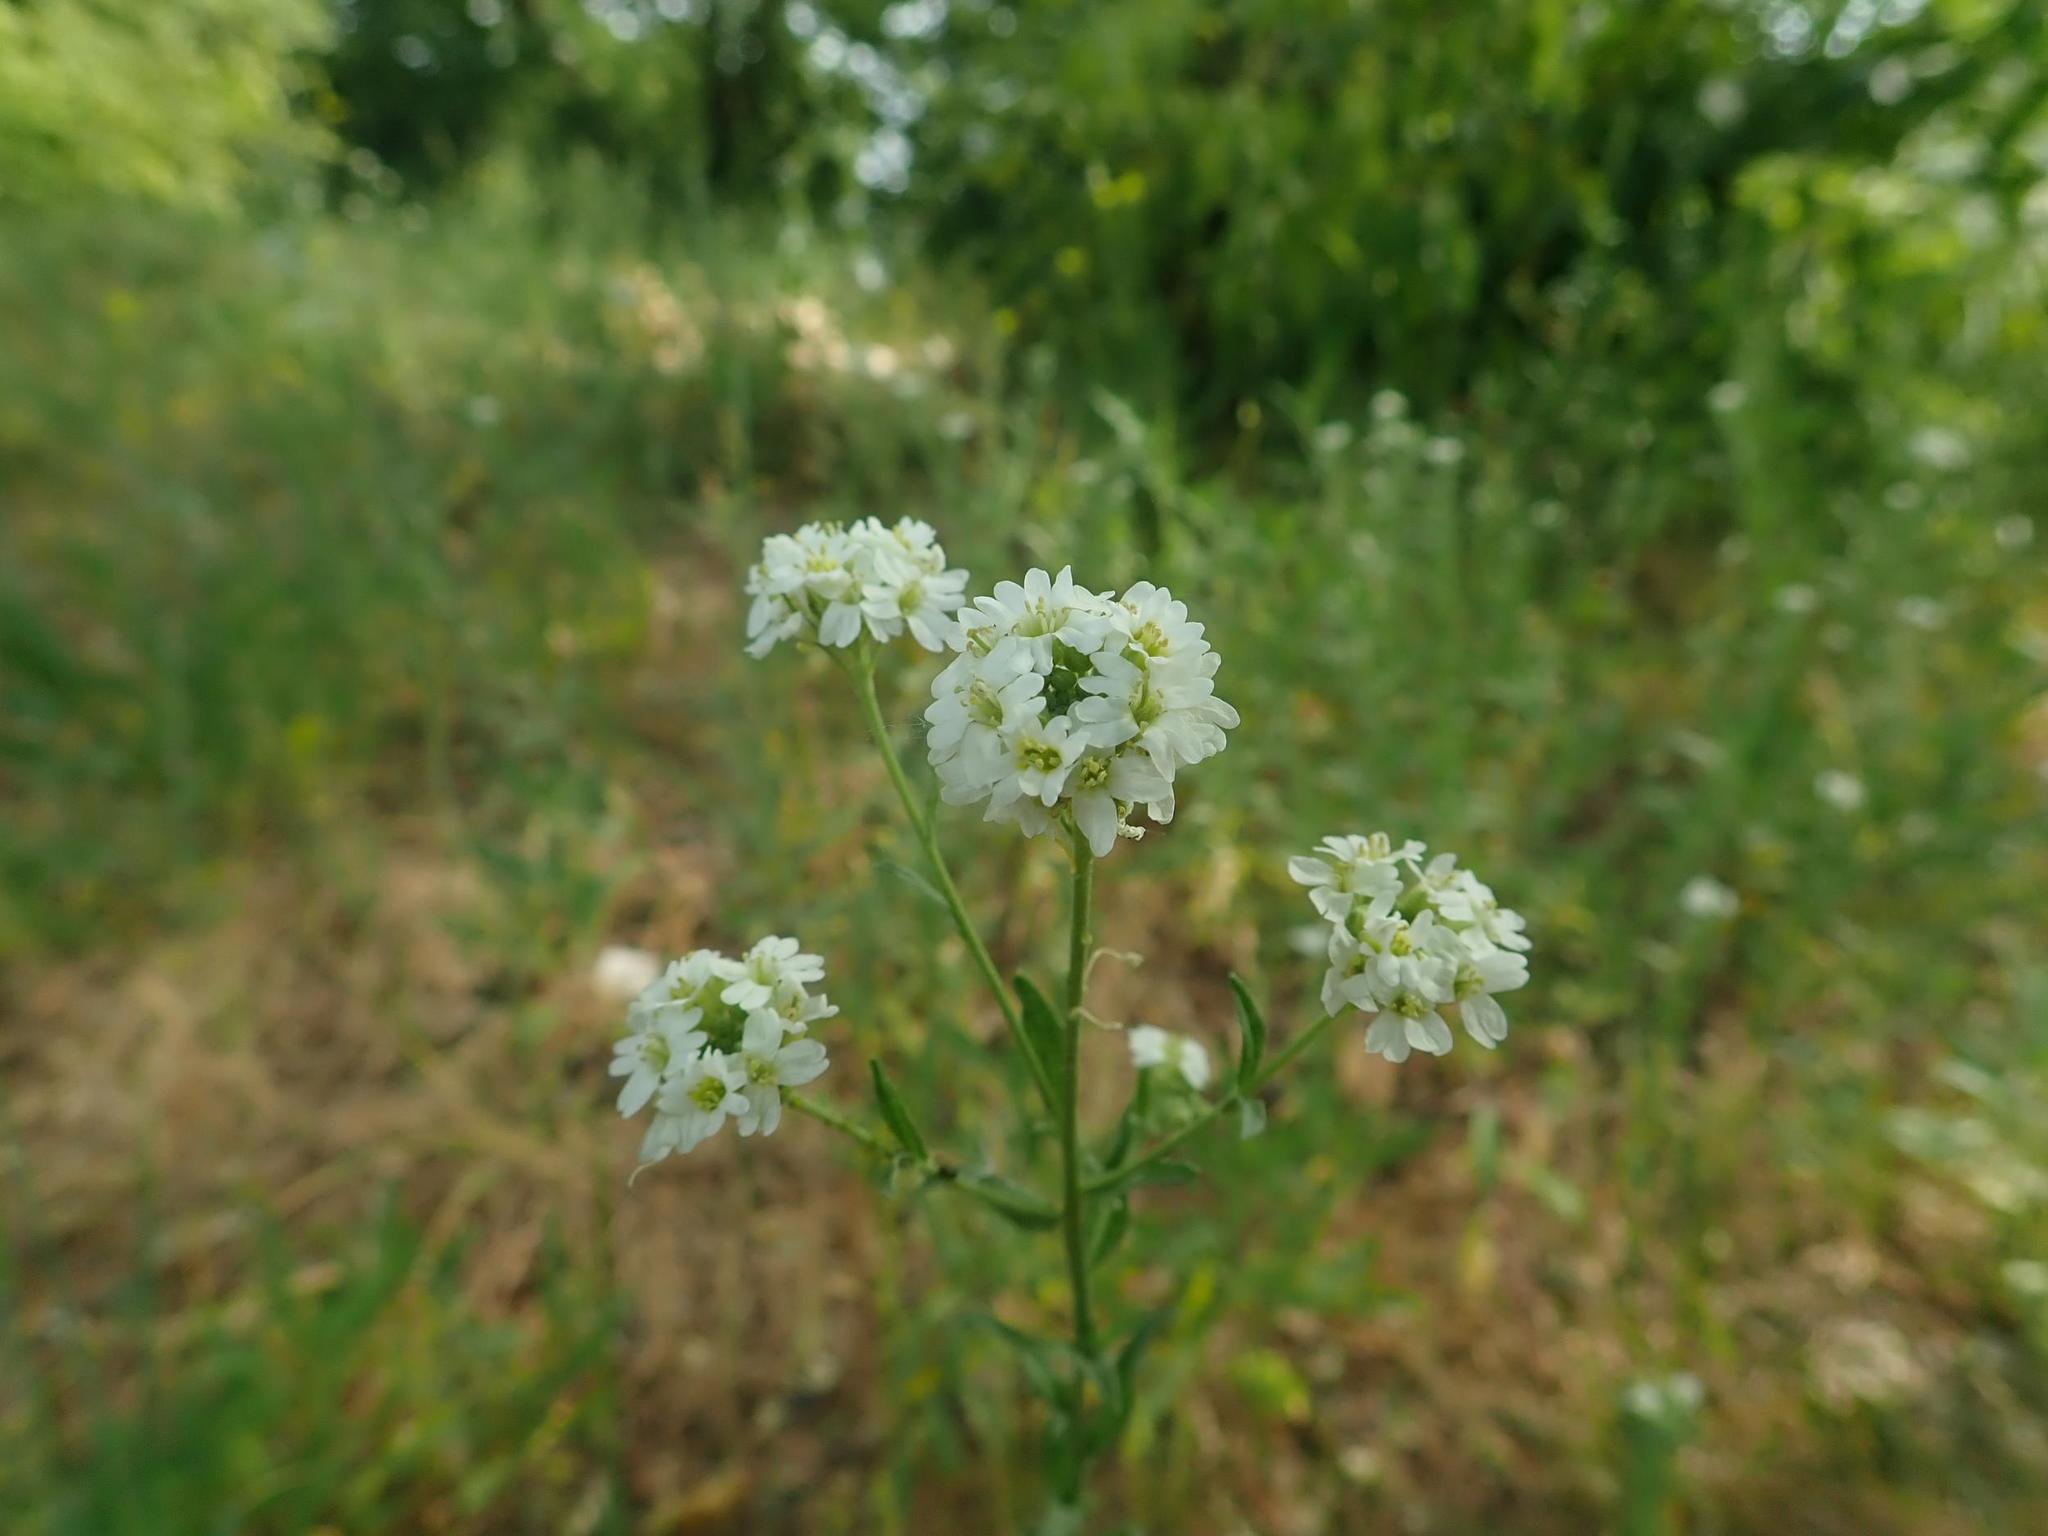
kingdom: Plantae
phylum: Tracheophyta
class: Magnoliopsida
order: Brassicales
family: Brassicaceae
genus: Berteroa
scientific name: Berteroa incana
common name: Hoary alison
